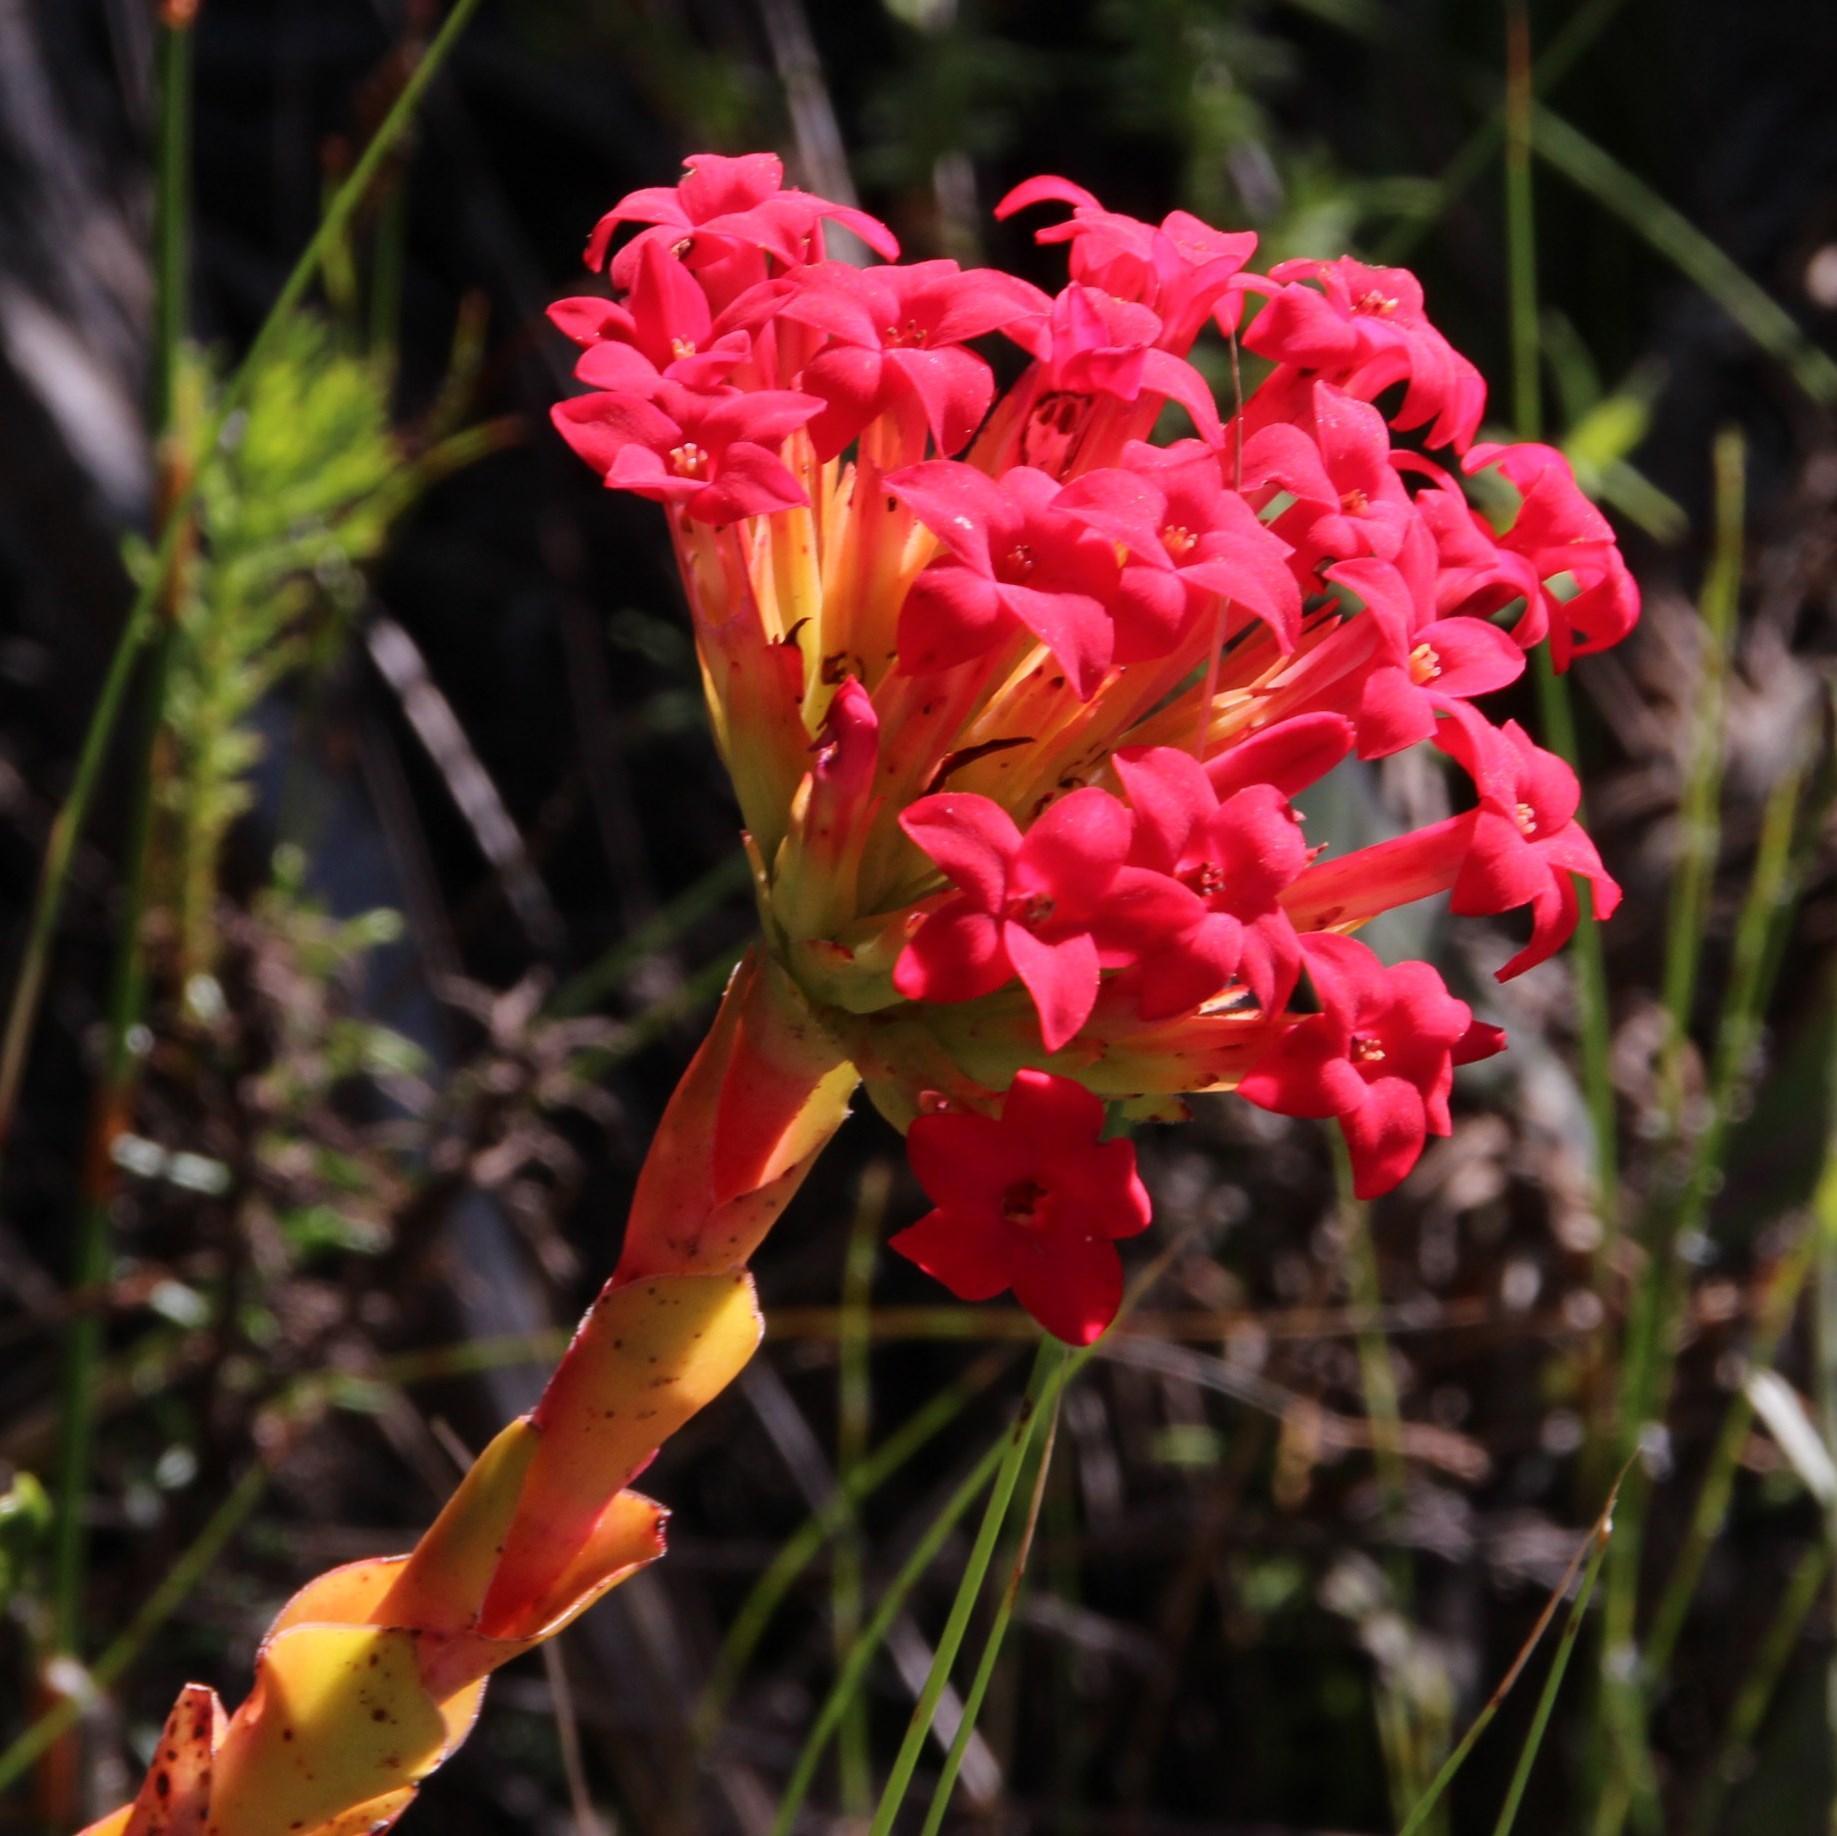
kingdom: Plantae
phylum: Tracheophyta
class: Magnoliopsida
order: Saxifragales
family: Crassulaceae
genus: Crassula
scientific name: Crassula coccinea
